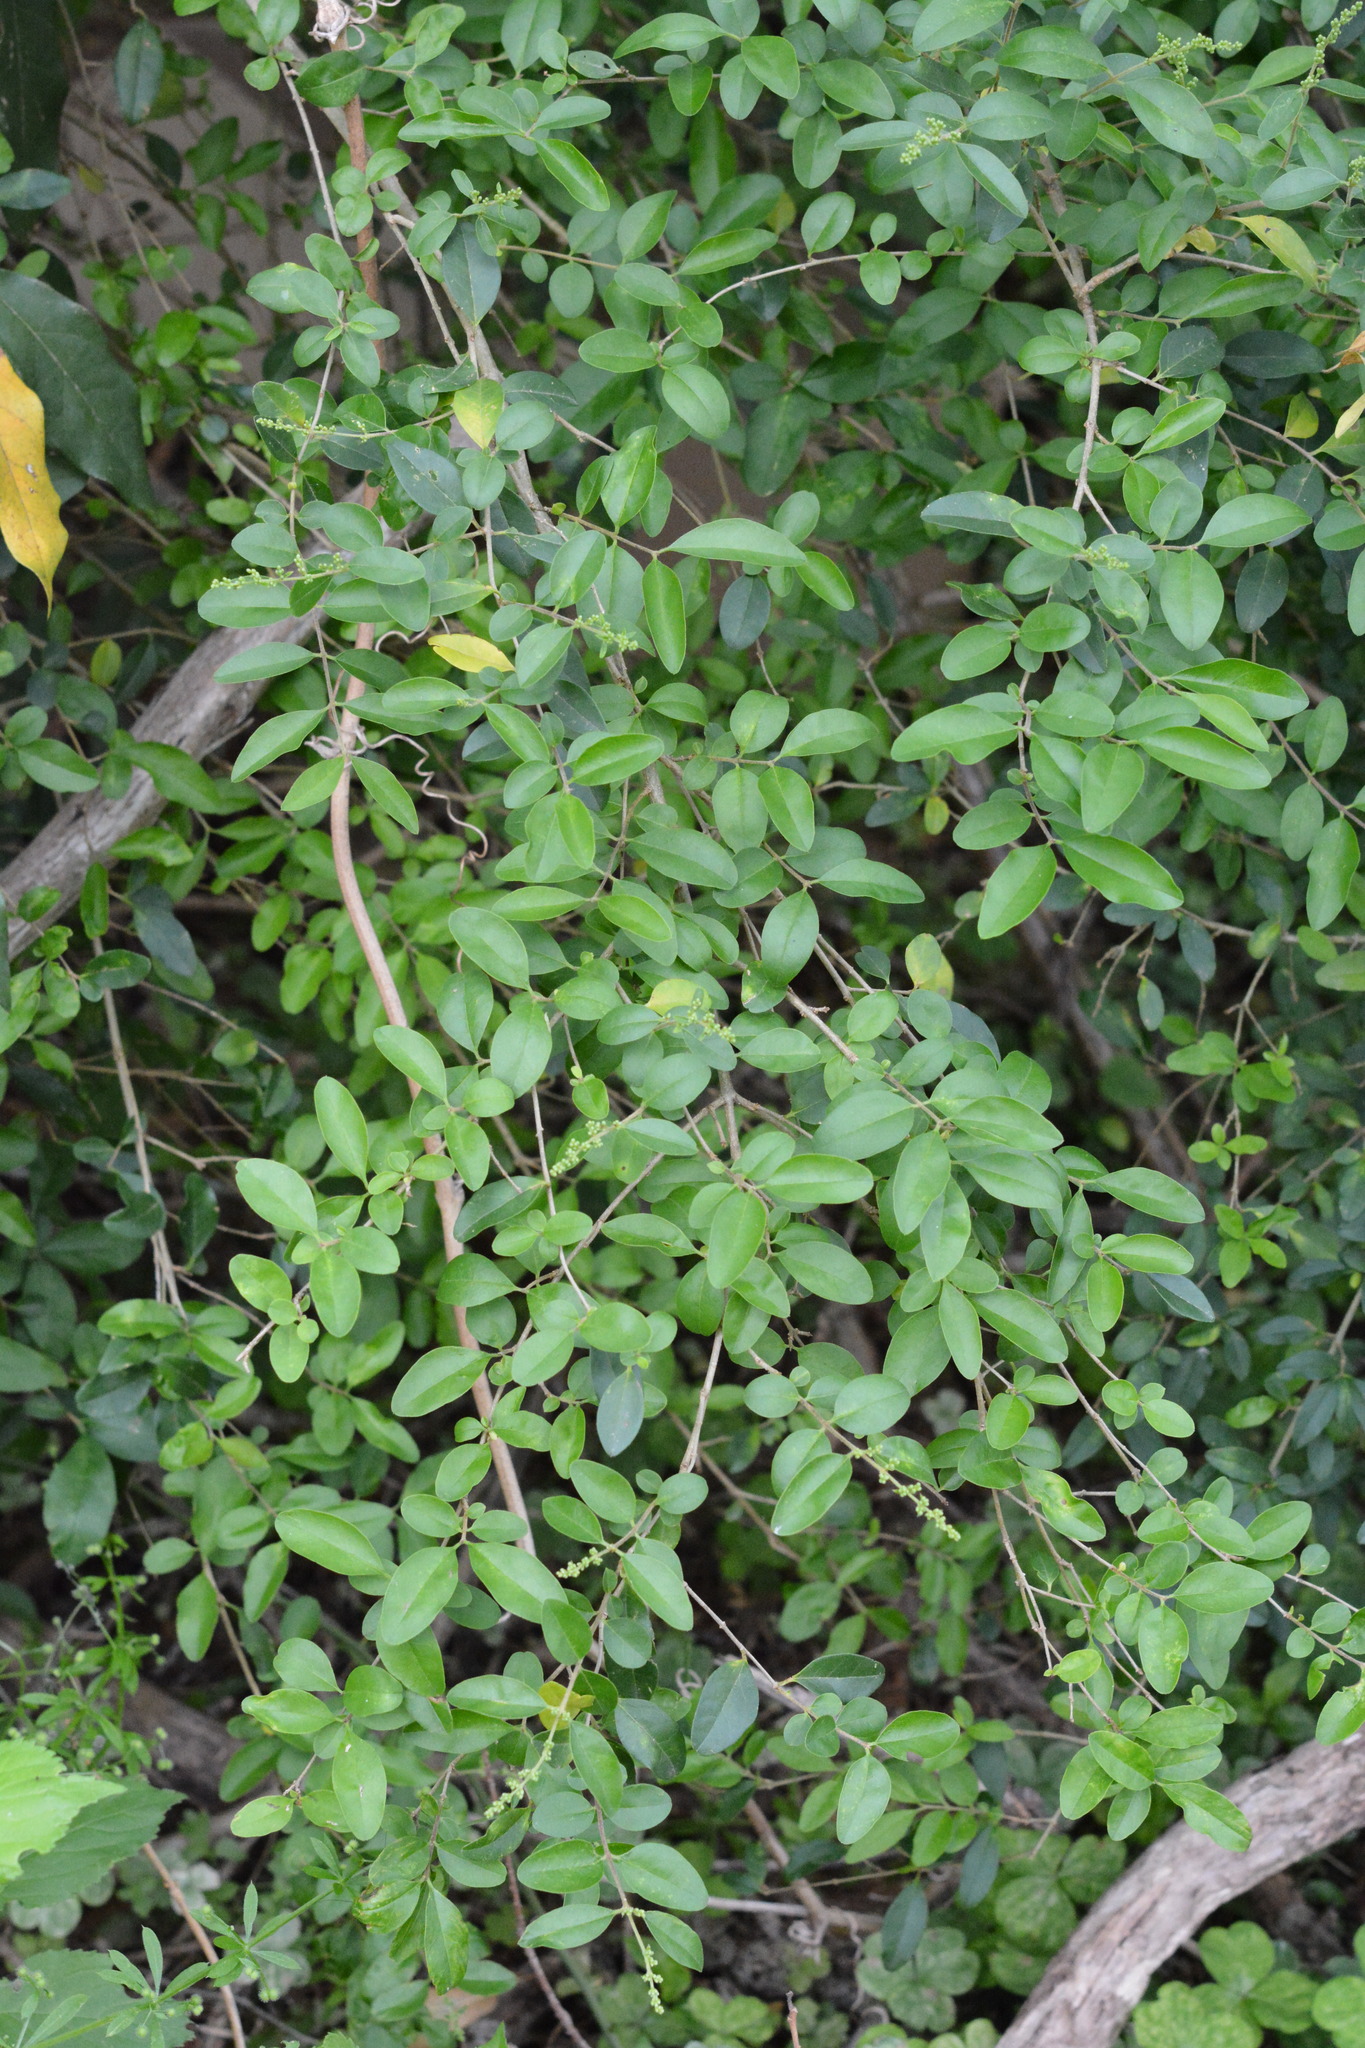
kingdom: Plantae
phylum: Tracheophyta
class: Magnoliopsida
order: Lamiales
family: Oleaceae
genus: Ligustrum
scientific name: Ligustrum sinense
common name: Chinese privet
